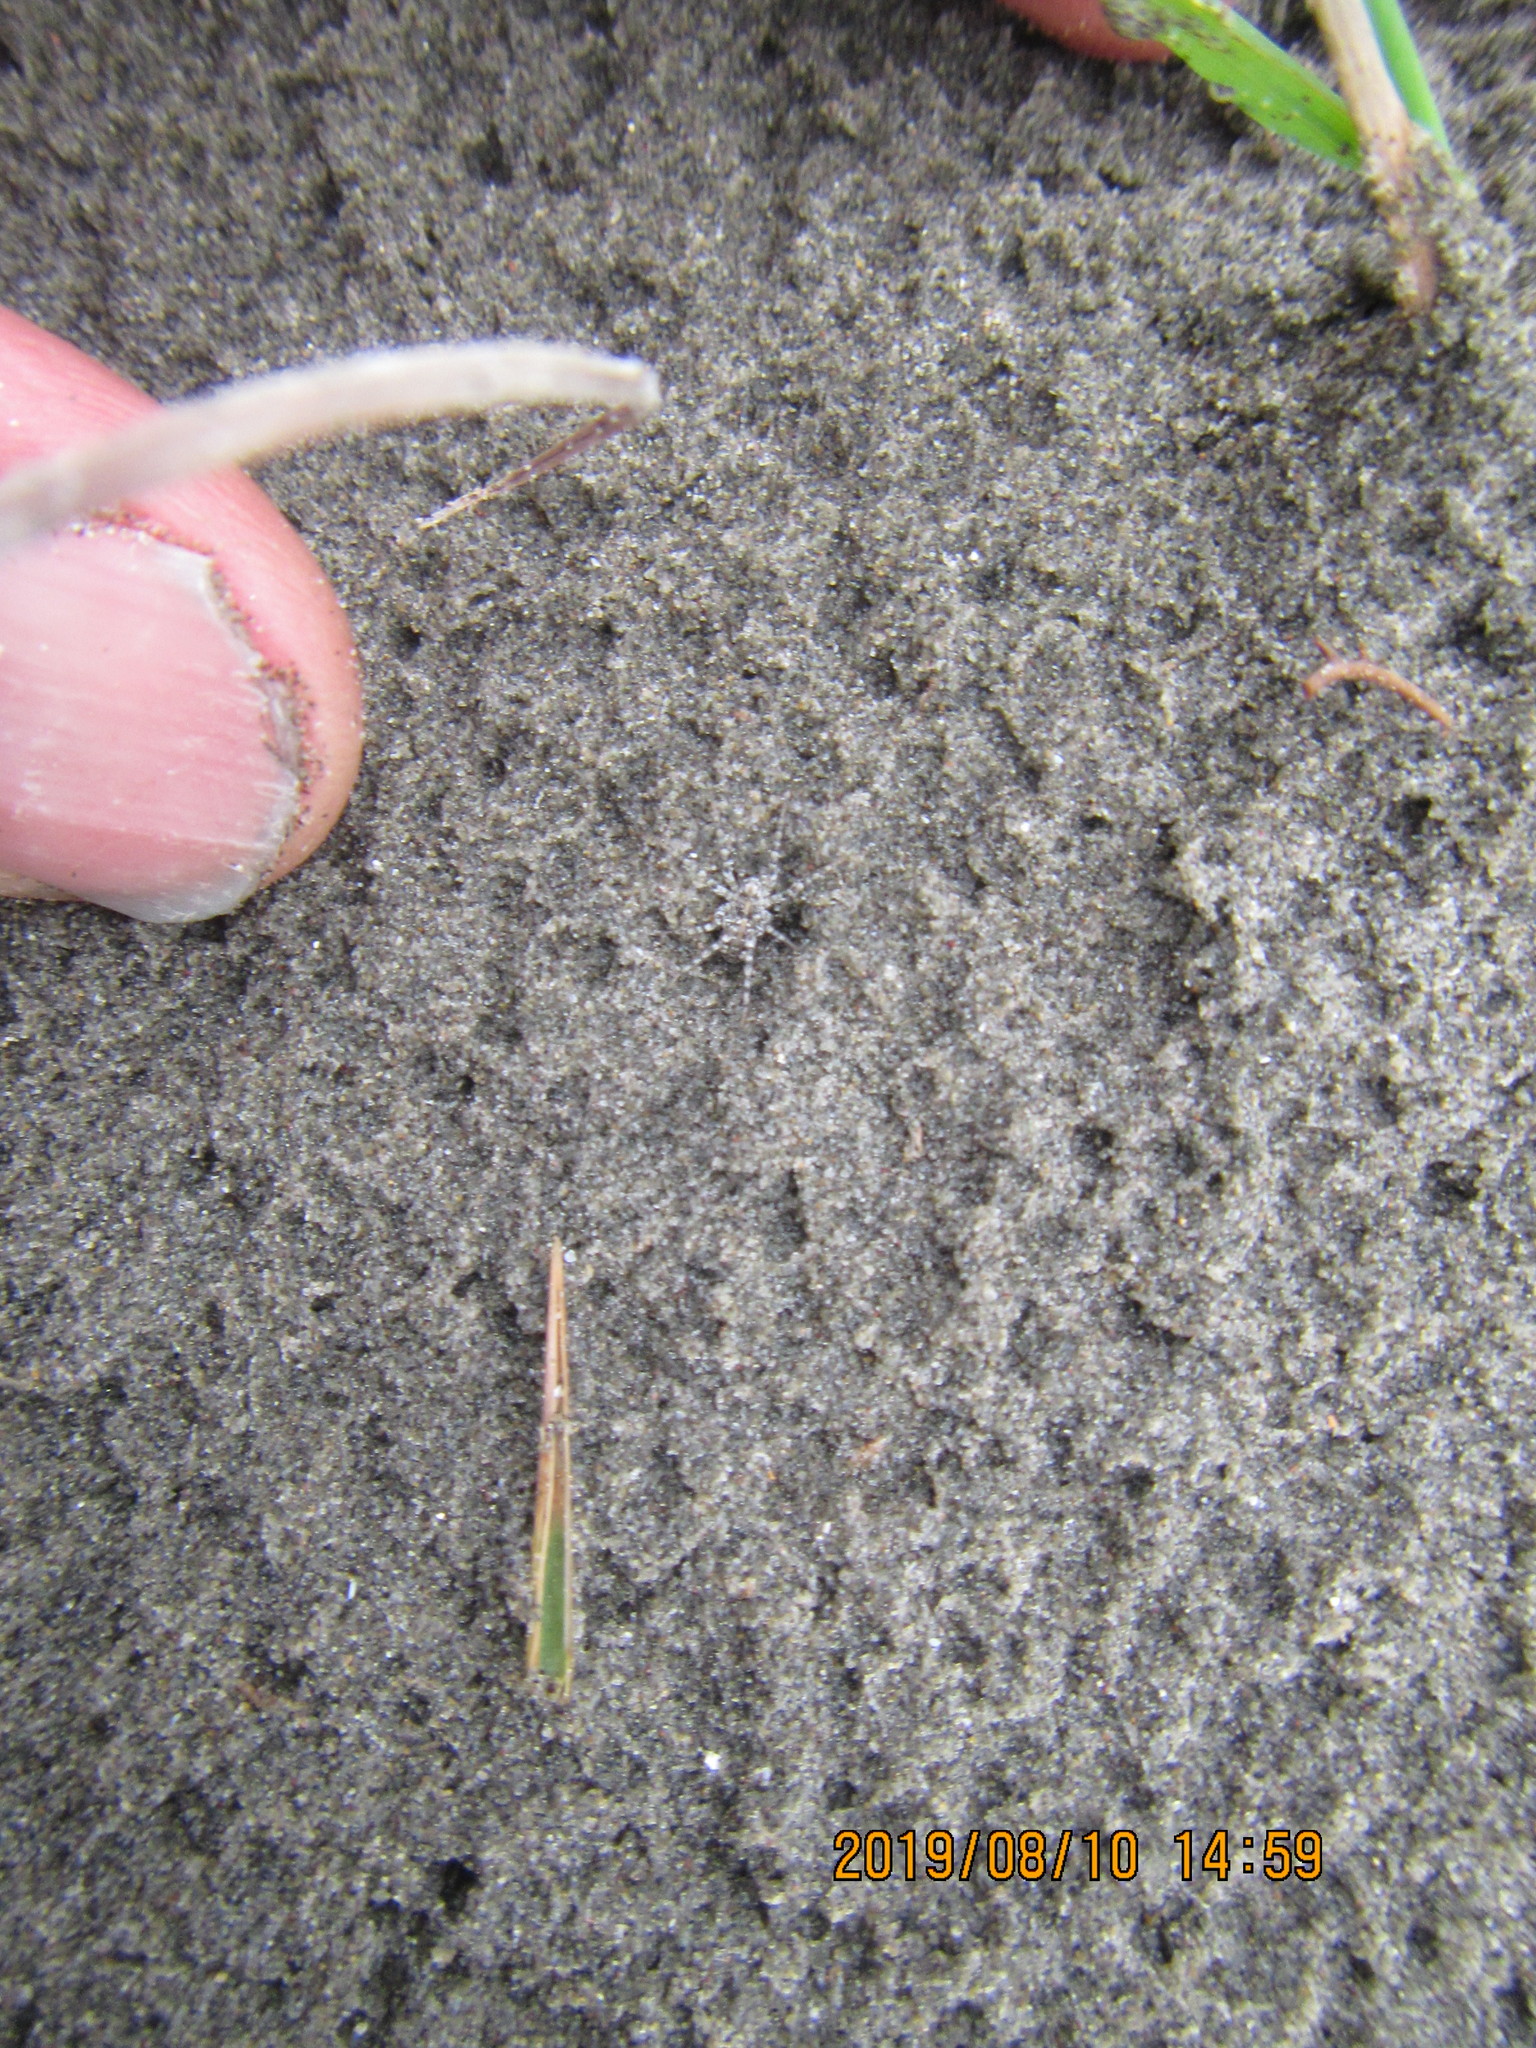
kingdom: Animalia
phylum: Arthropoda
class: Arachnida
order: Araneae
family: Lycosidae
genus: Anoteropsis
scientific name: Anoteropsis litoralis
